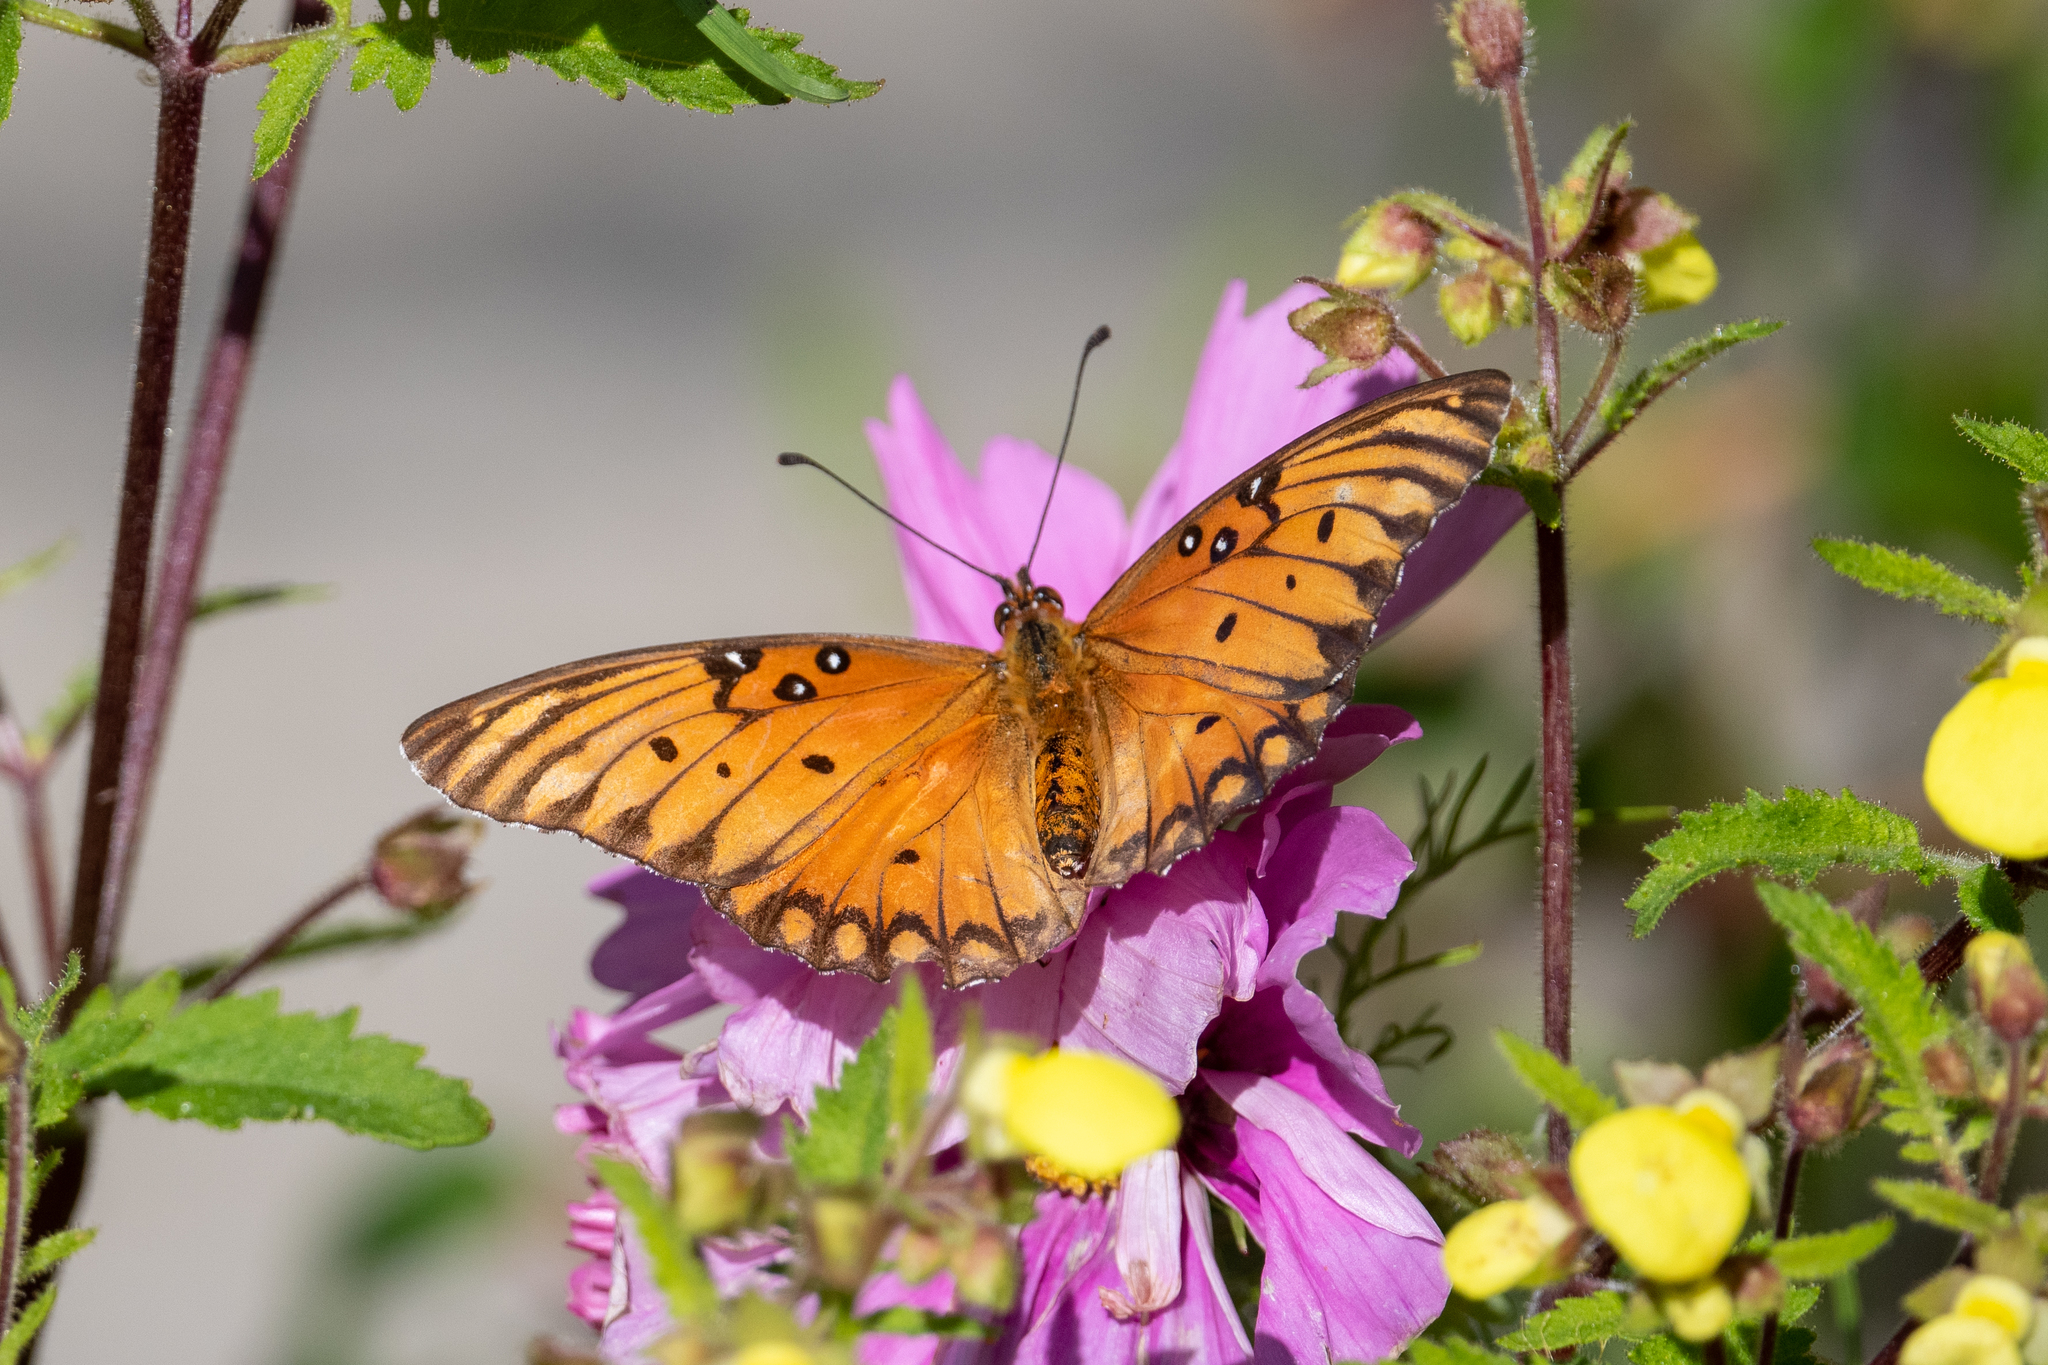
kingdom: Animalia
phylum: Arthropoda
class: Insecta
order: Lepidoptera
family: Nymphalidae
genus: Dione
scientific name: Dione vanillae
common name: Gulf fritillary
